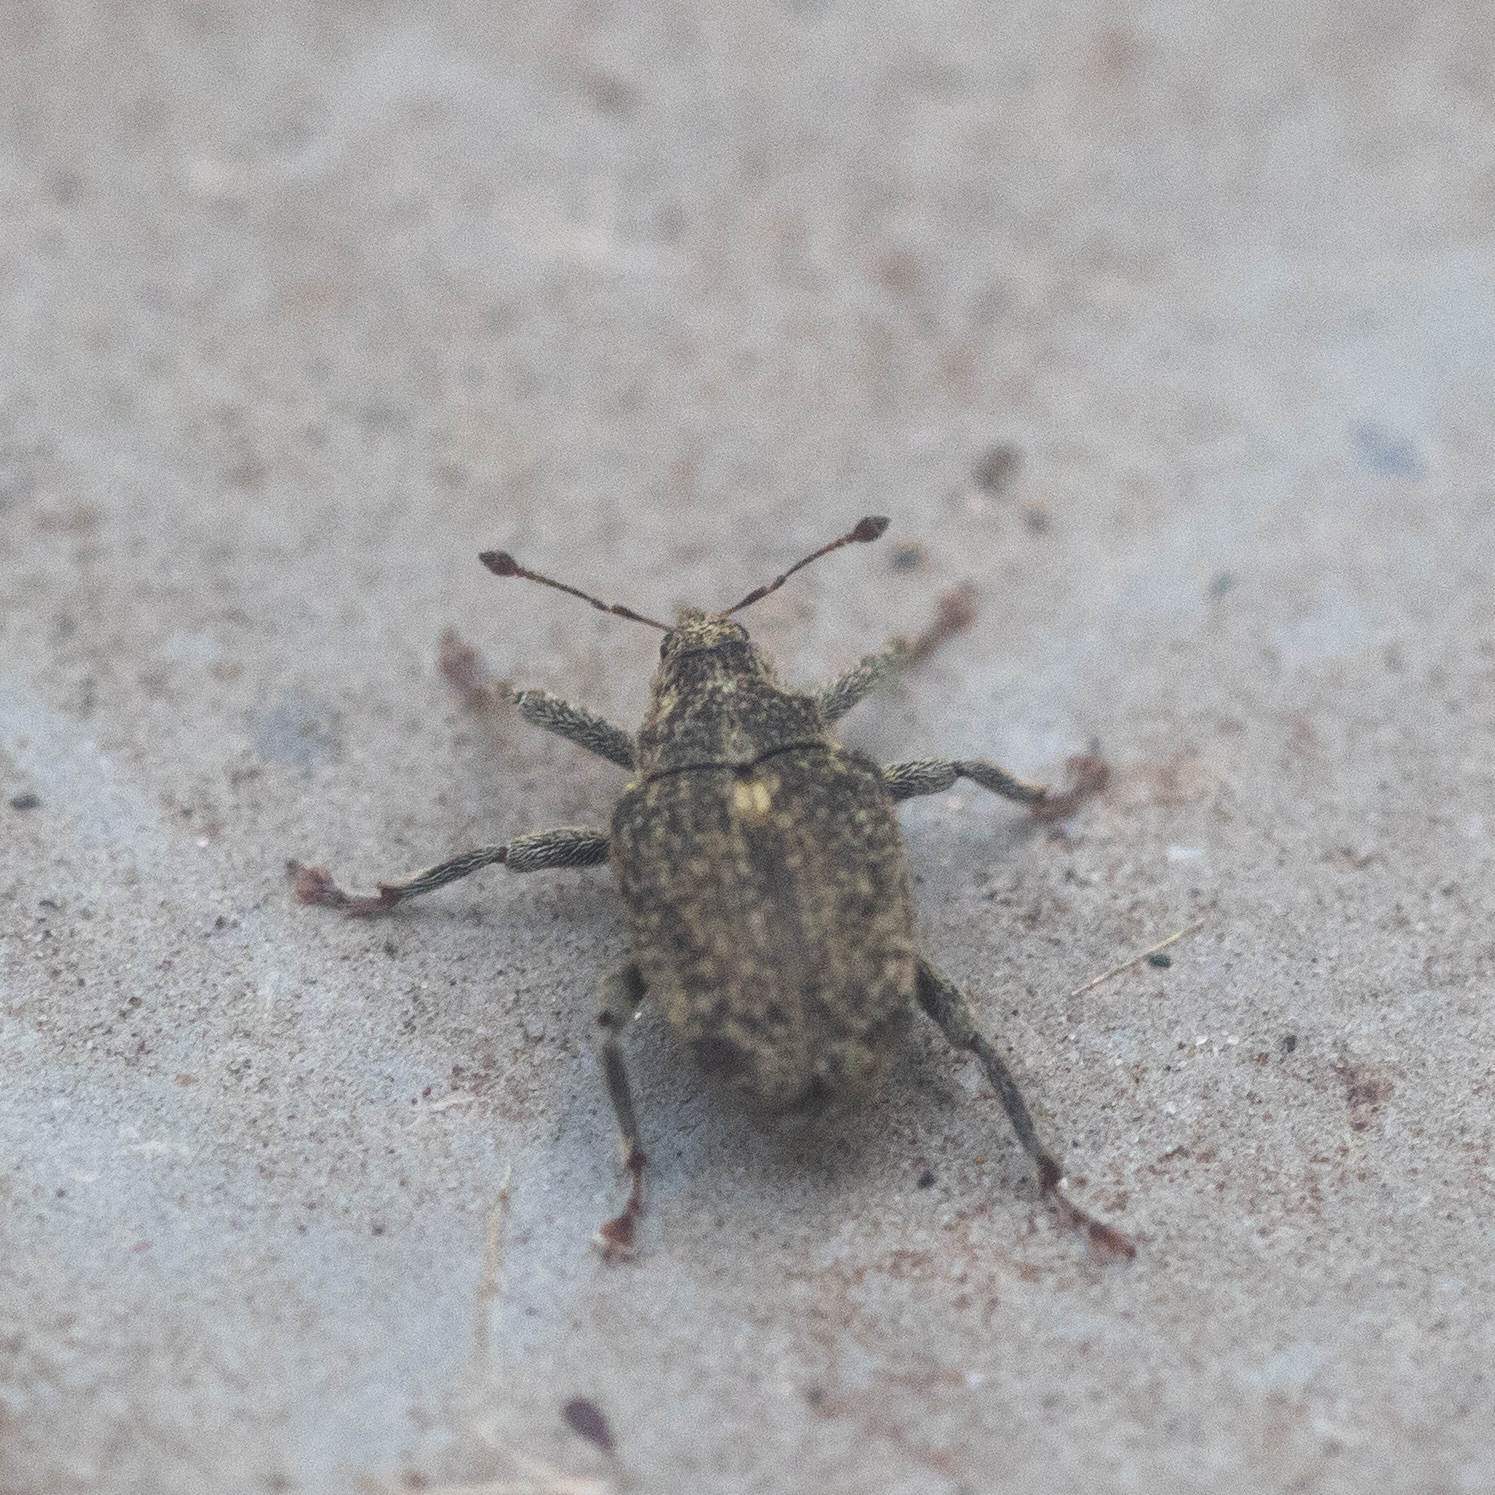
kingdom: Animalia
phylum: Arthropoda
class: Insecta
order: Coleoptera
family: Curculionidae
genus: Ceutorhynchus
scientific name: Ceutorhynchus pallidactylus
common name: Cabbage stem weavil
